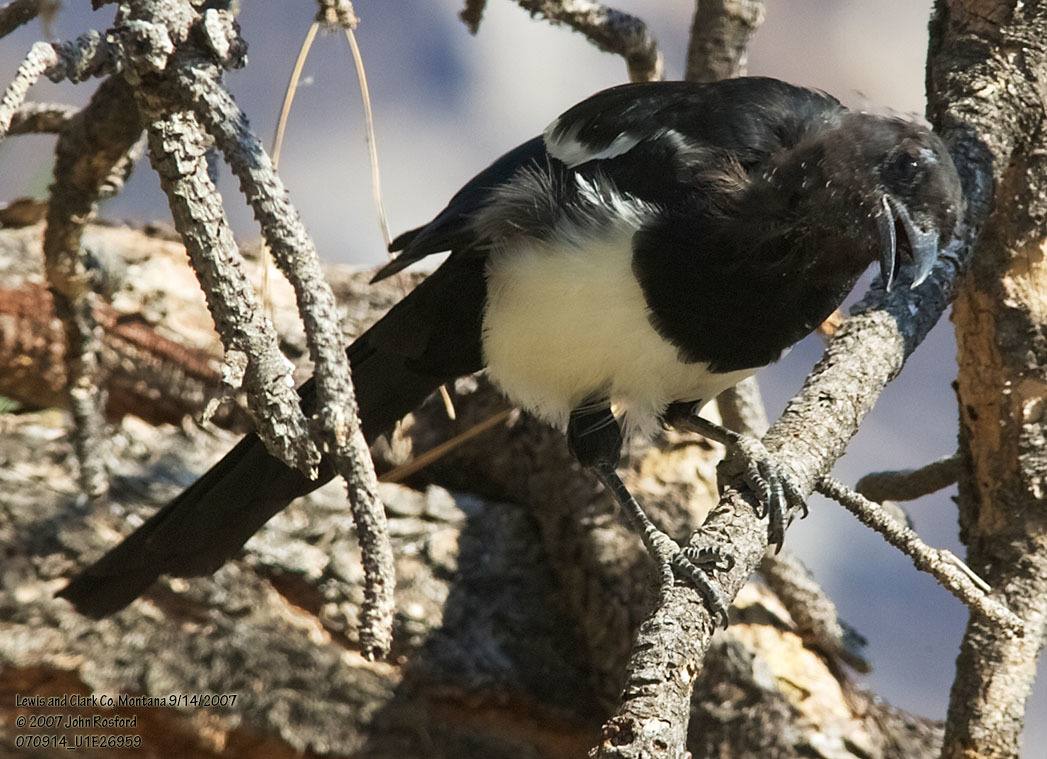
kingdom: Animalia
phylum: Chordata
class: Aves
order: Passeriformes
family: Corvidae
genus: Pica
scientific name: Pica hudsonia
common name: Black-billed magpie
